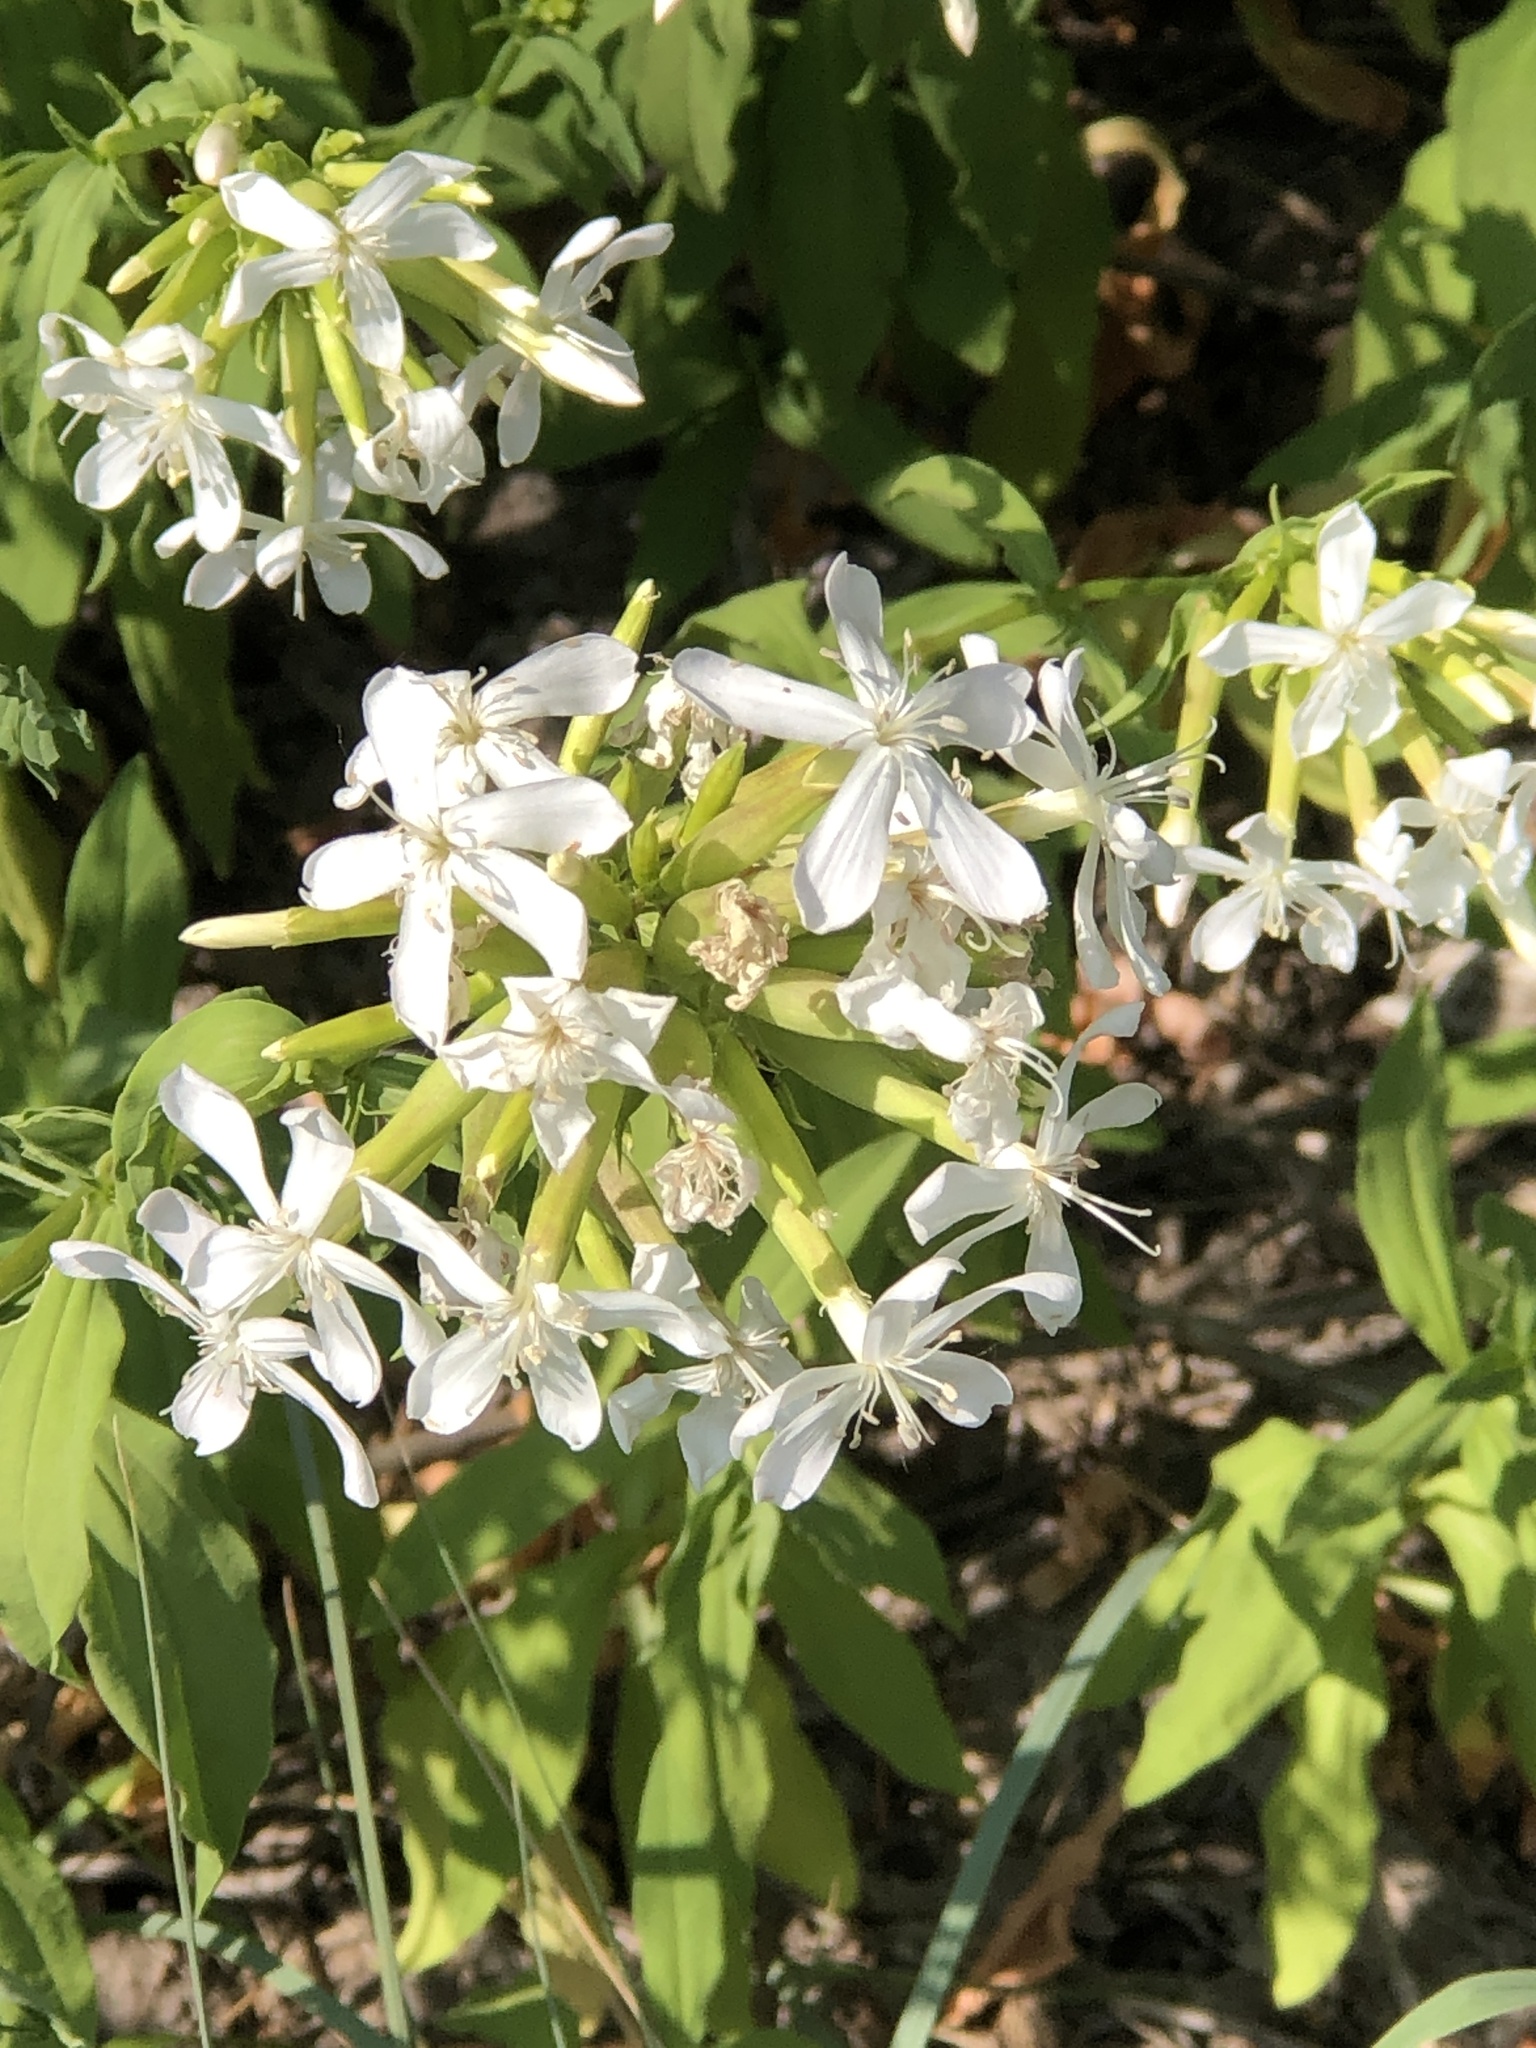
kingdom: Plantae
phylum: Tracheophyta
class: Magnoliopsida
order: Caryophyllales
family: Caryophyllaceae
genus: Saponaria
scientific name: Saponaria officinalis
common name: Soapwort
